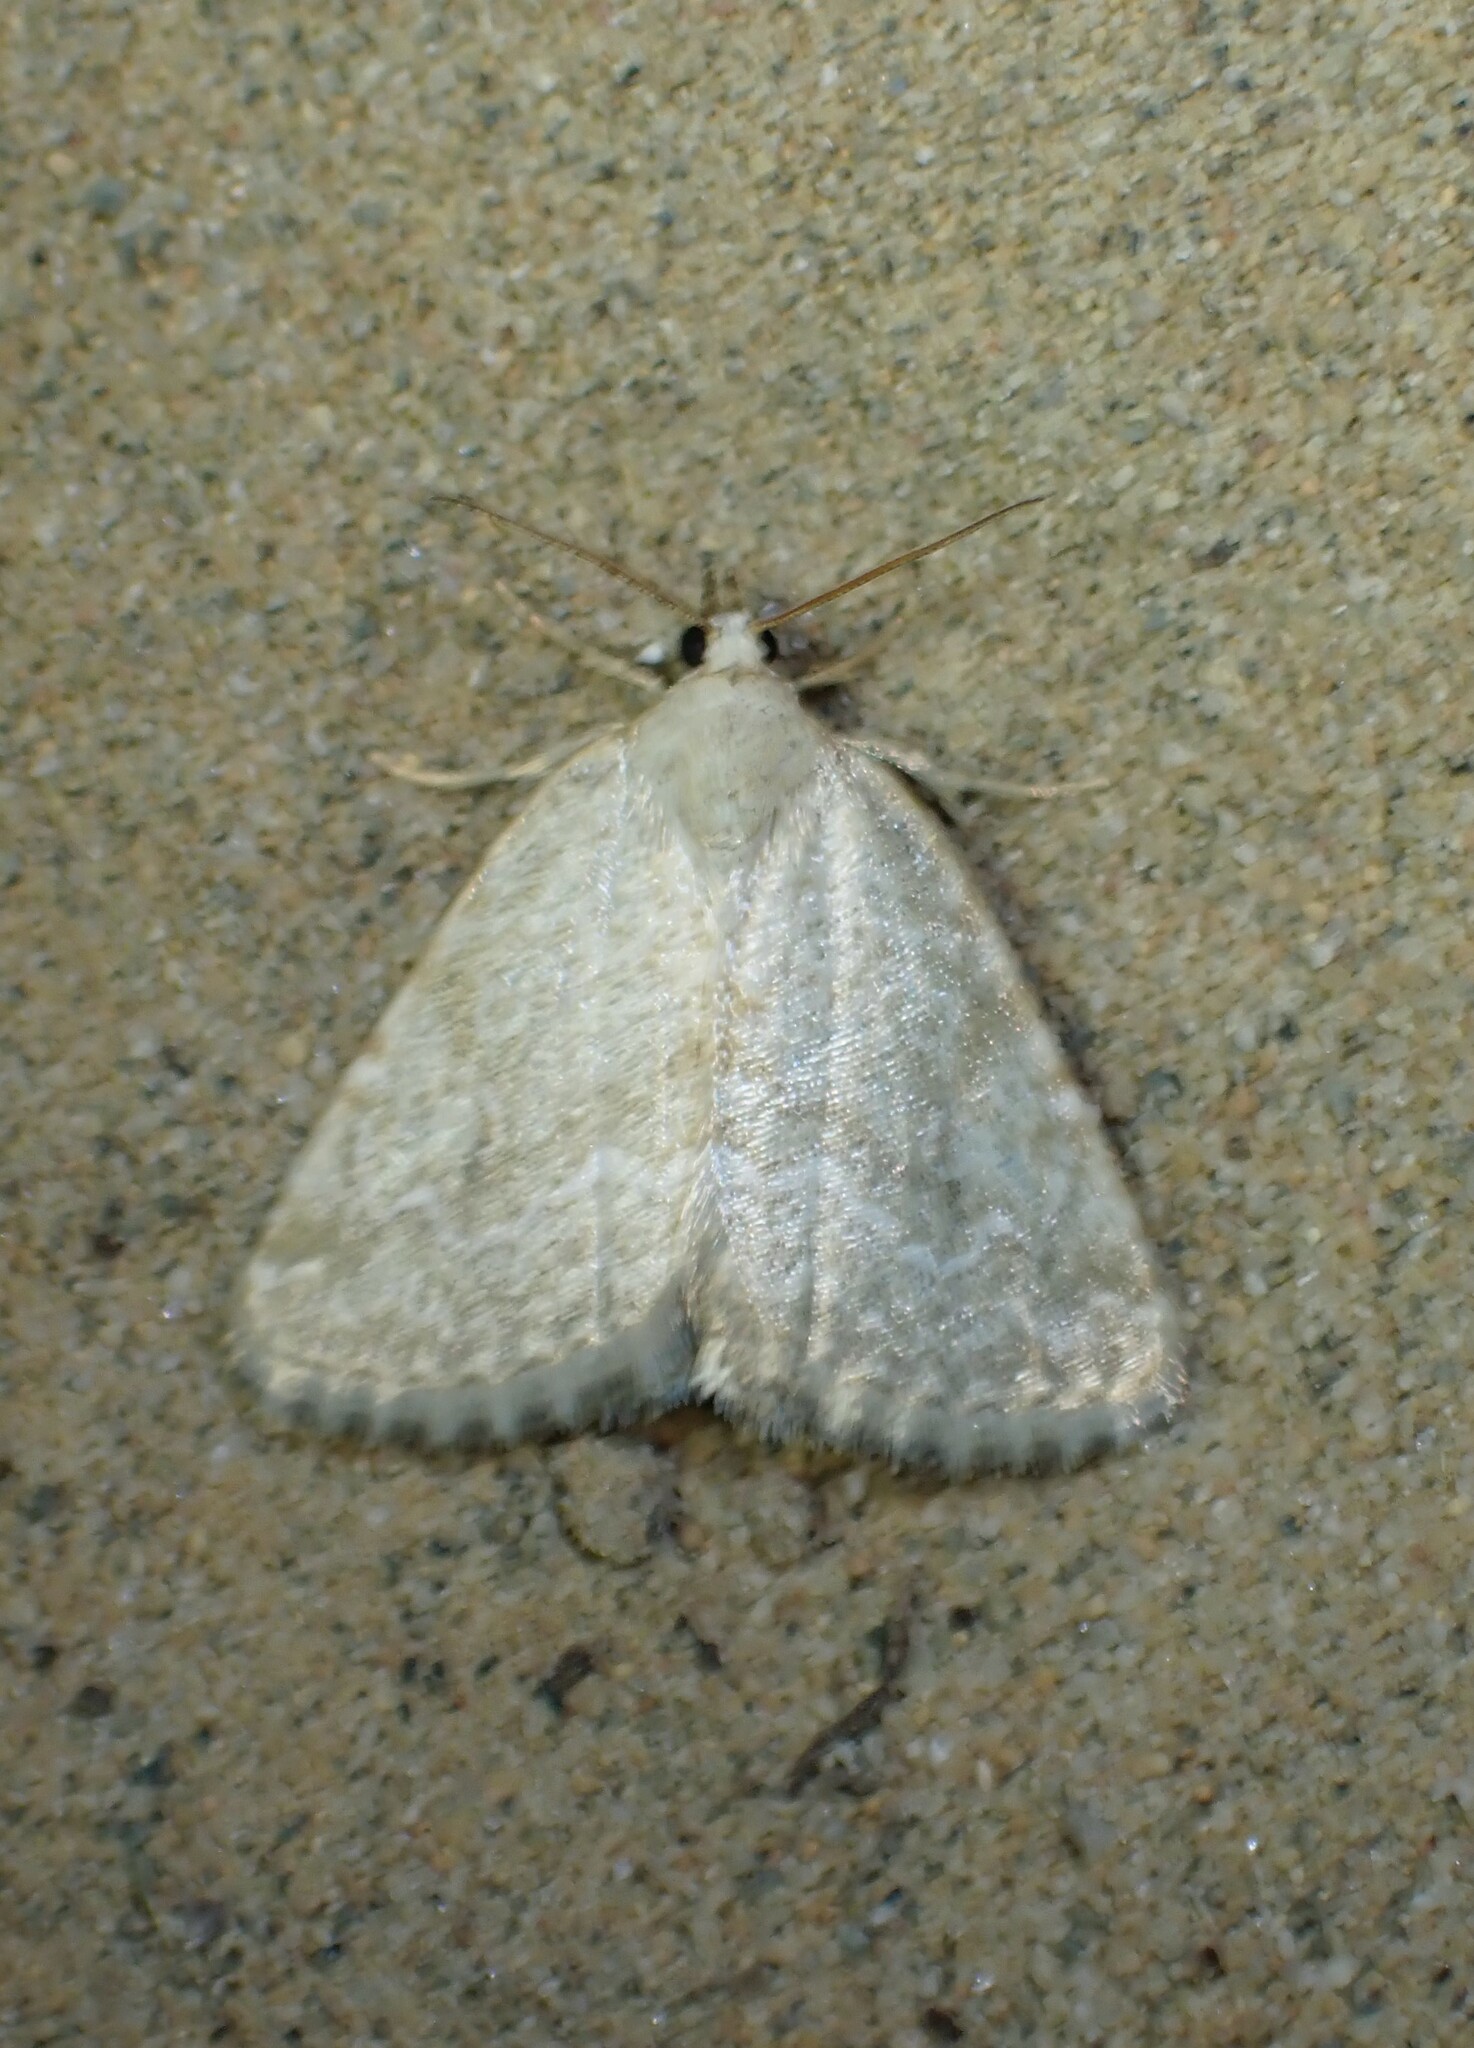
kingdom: Animalia
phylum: Arthropoda
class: Insecta
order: Lepidoptera
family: Noctuidae
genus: Protodeltote
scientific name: Protodeltote albidula
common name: Pale glyph
